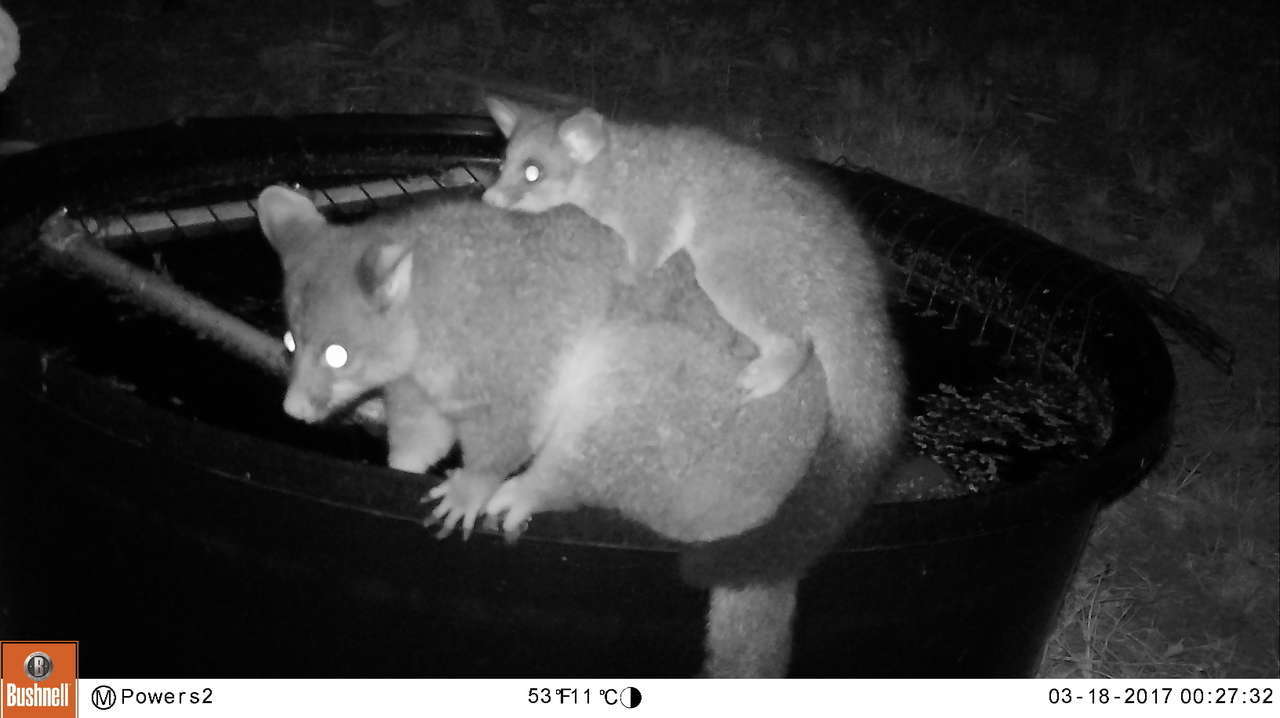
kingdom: Animalia
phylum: Chordata
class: Mammalia
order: Diprotodontia
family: Phalangeridae
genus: Trichosurus
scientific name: Trichosurus vulpecula
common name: Common brushtail
